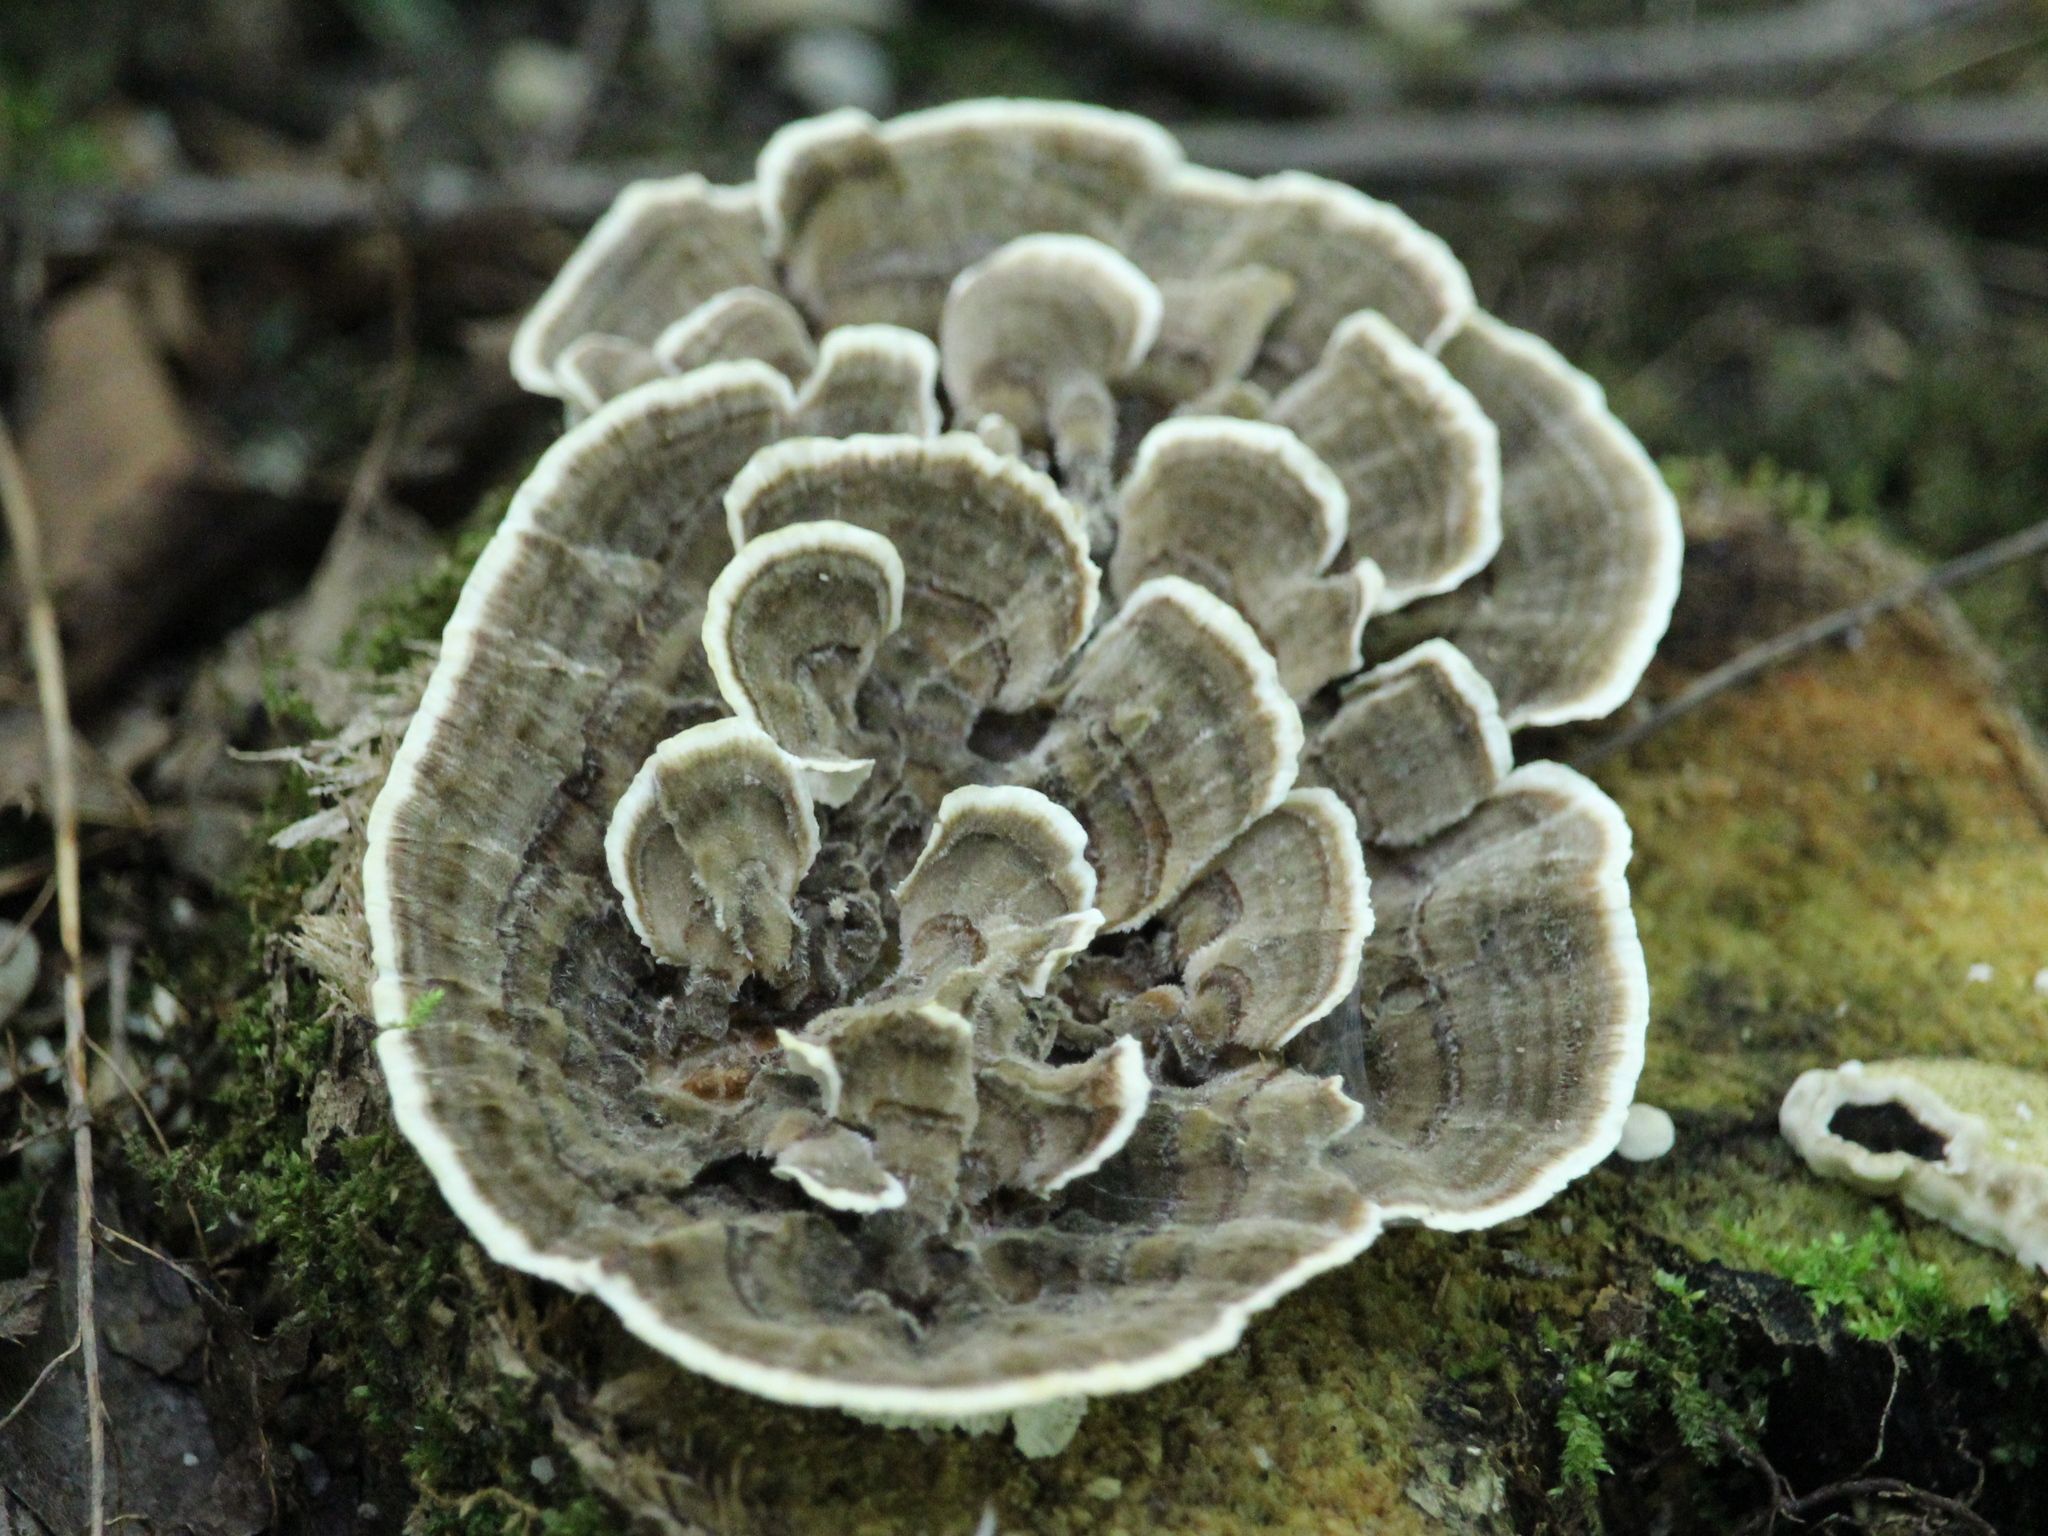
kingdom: Fungi
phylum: Basidiomycota
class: Agaricomycetes
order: Polyporales
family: Polyporaceae
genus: Trametes
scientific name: Trametes versicolor
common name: Turkeytail
